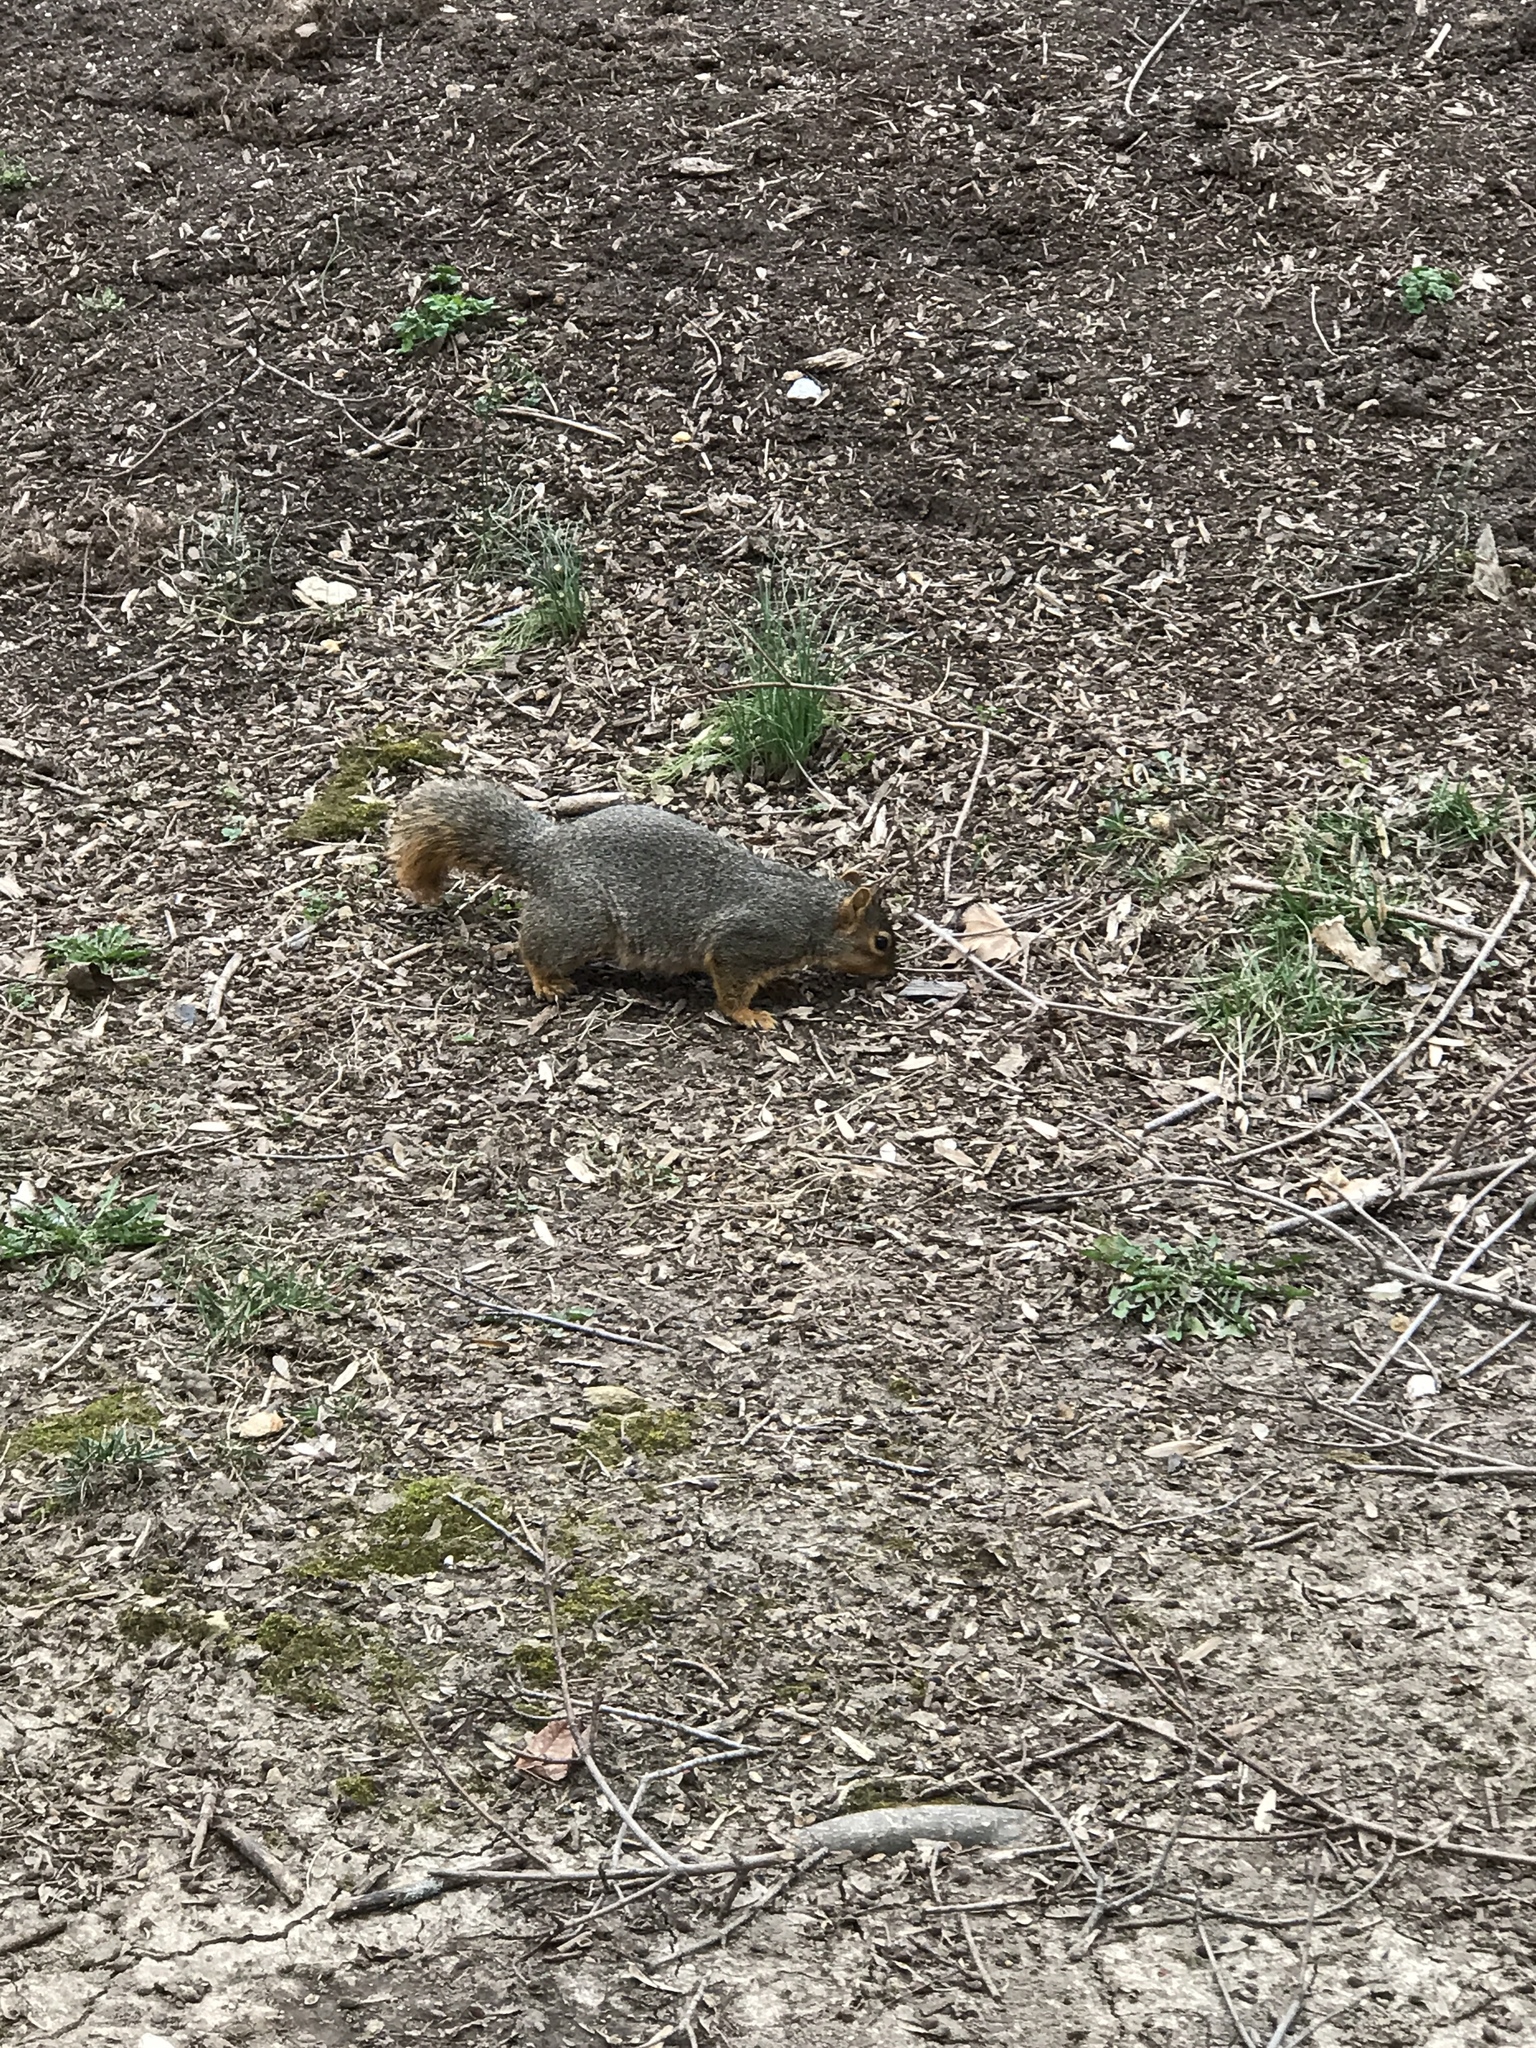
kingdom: Animalia
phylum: Chordata
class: Mammalia
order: Rodentia
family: Sciuridae
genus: Sciurus
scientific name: Sciurus niger
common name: Fox squirrel
